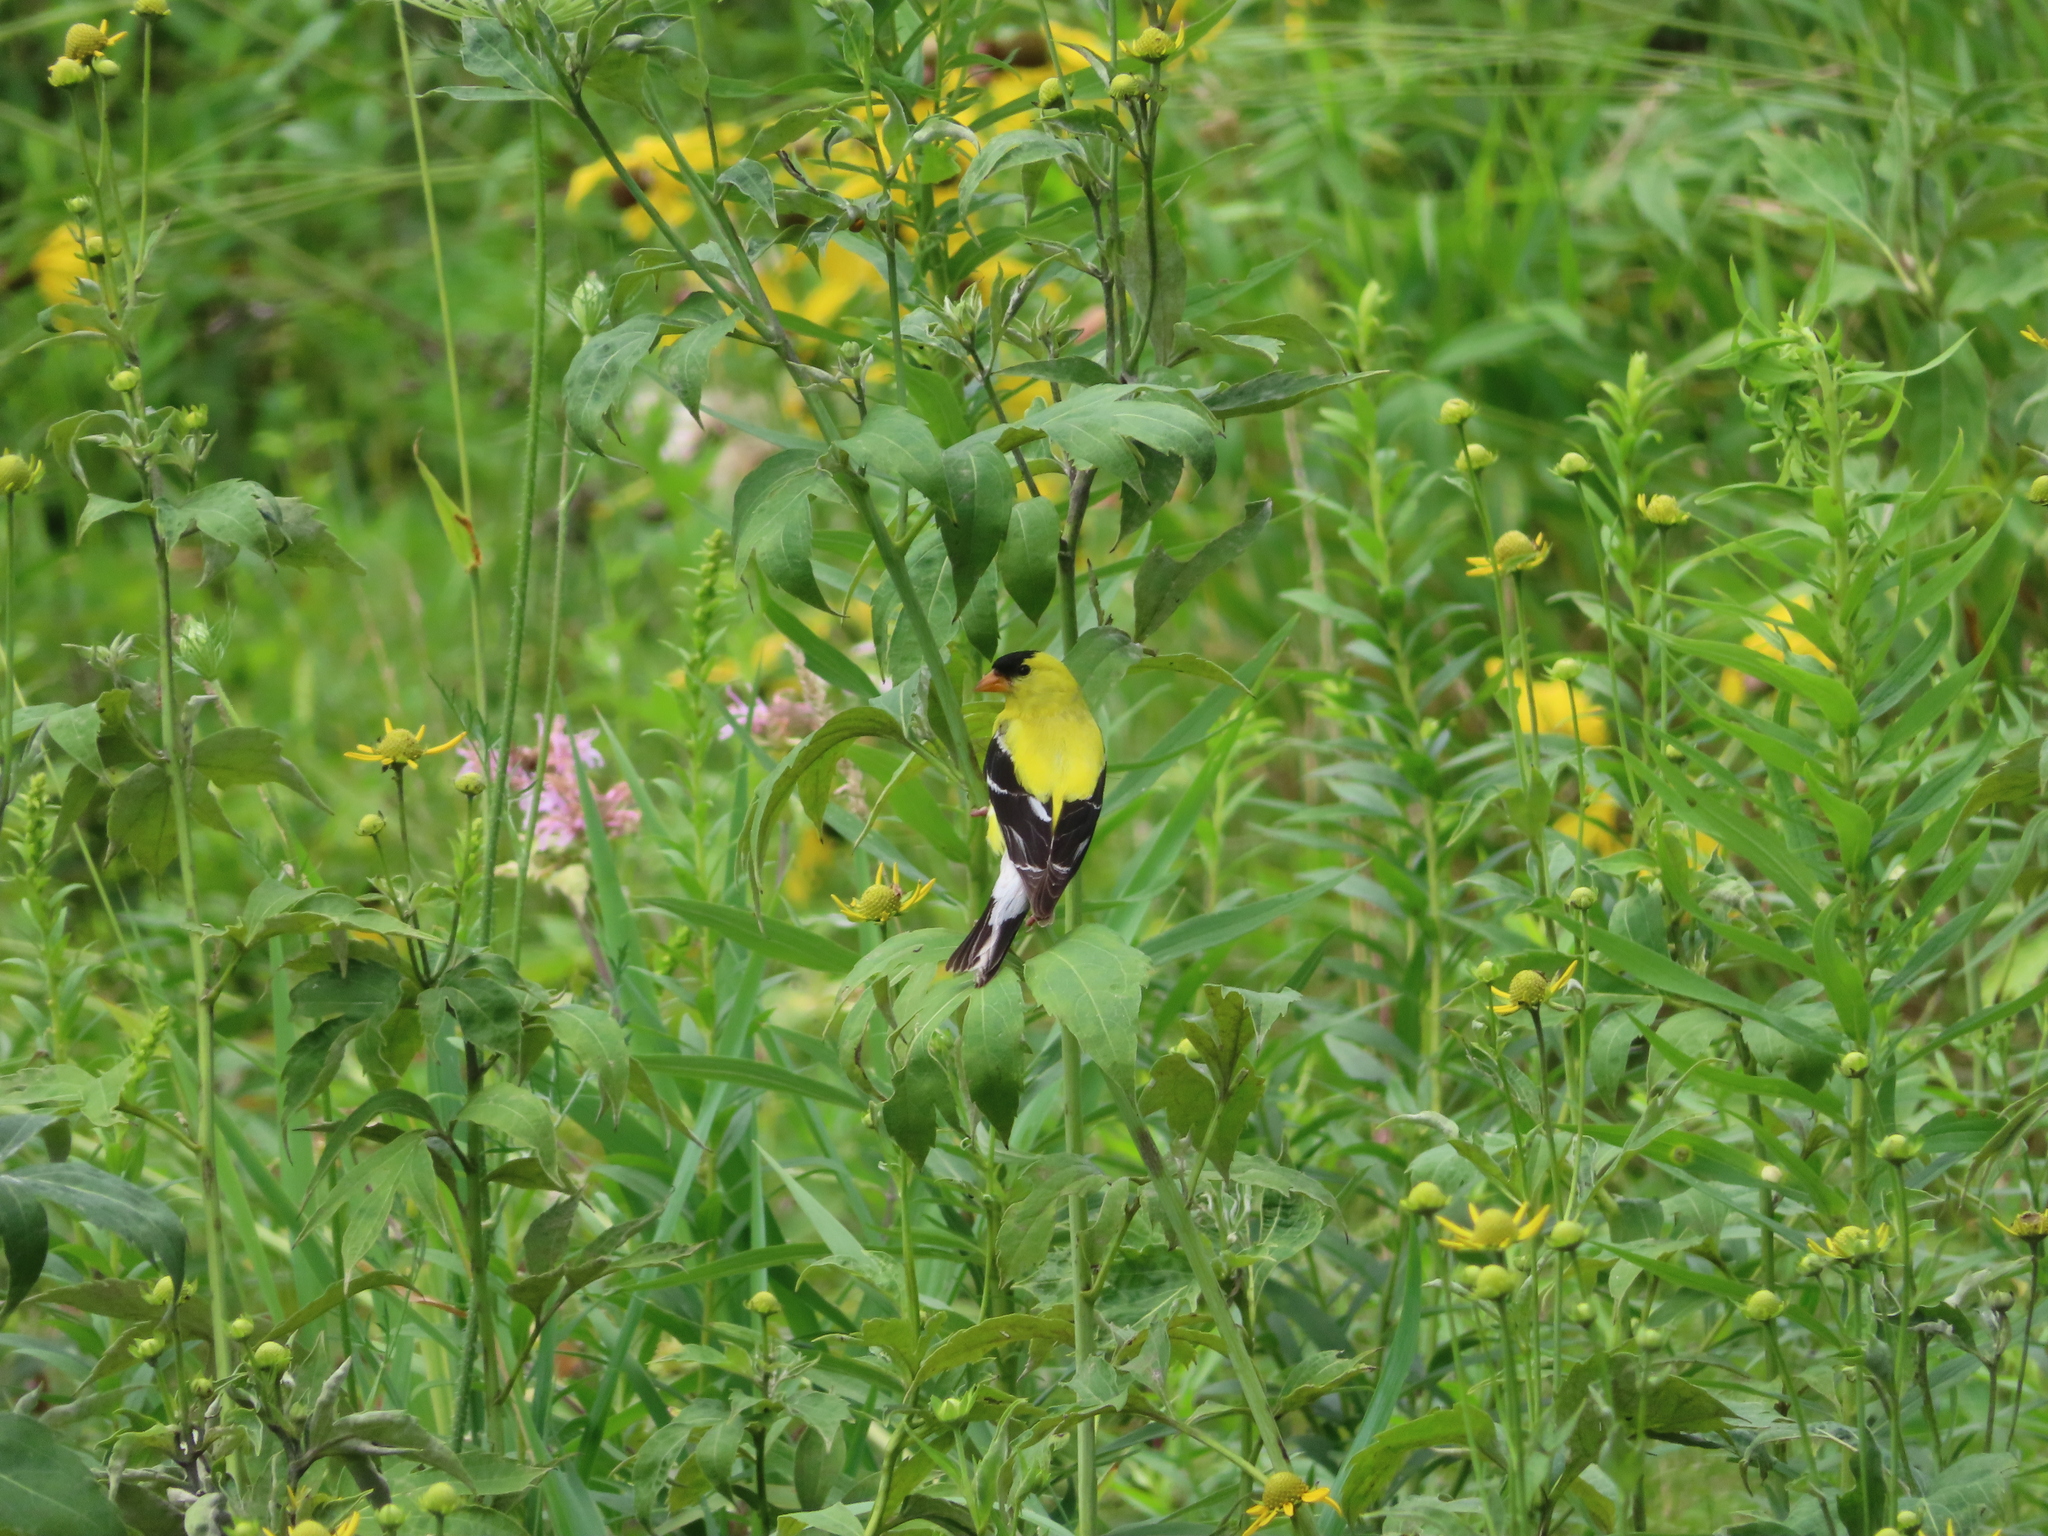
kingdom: Animalia
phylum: Chordata
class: Aves
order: Passeriformes
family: Fringillidae
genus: Spinus
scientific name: Spinus tristis
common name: American goldfinch
